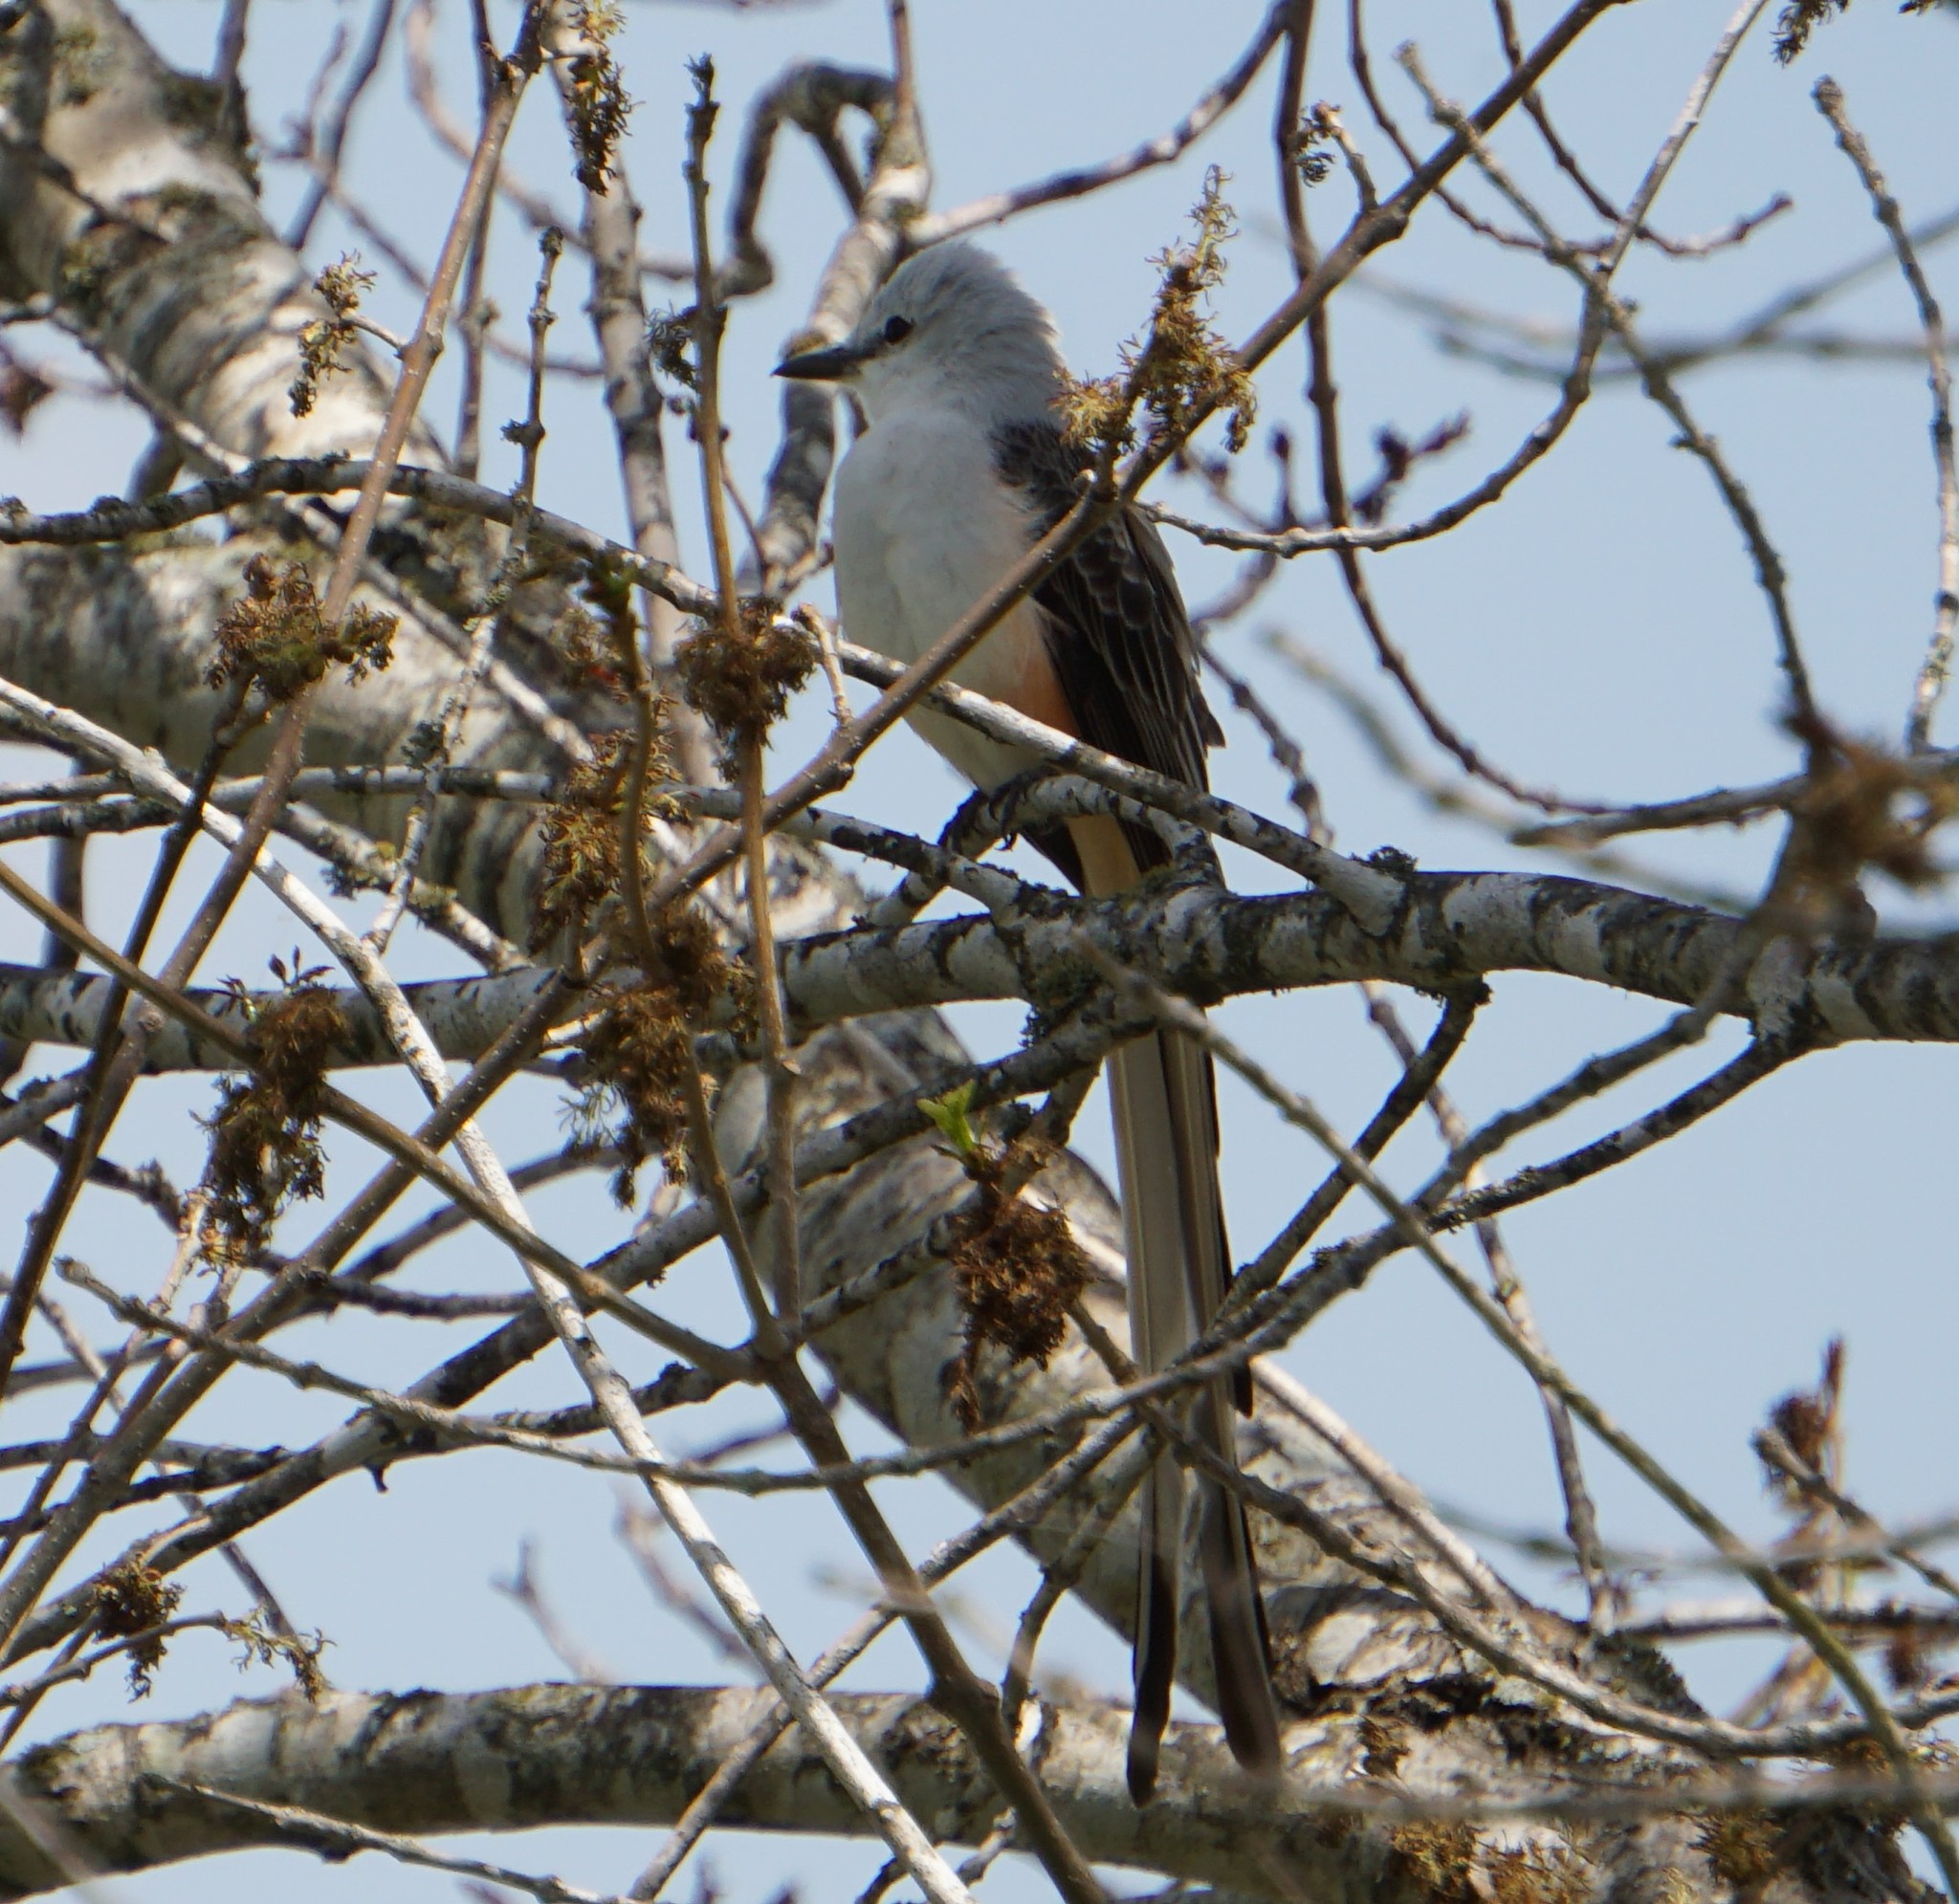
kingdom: Animalia
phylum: Chordata
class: Aves
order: Passeriformes
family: Tyrannidae
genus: Tyrannus
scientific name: Tyrannus forficatus
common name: Scissor-tailed flycatcher
